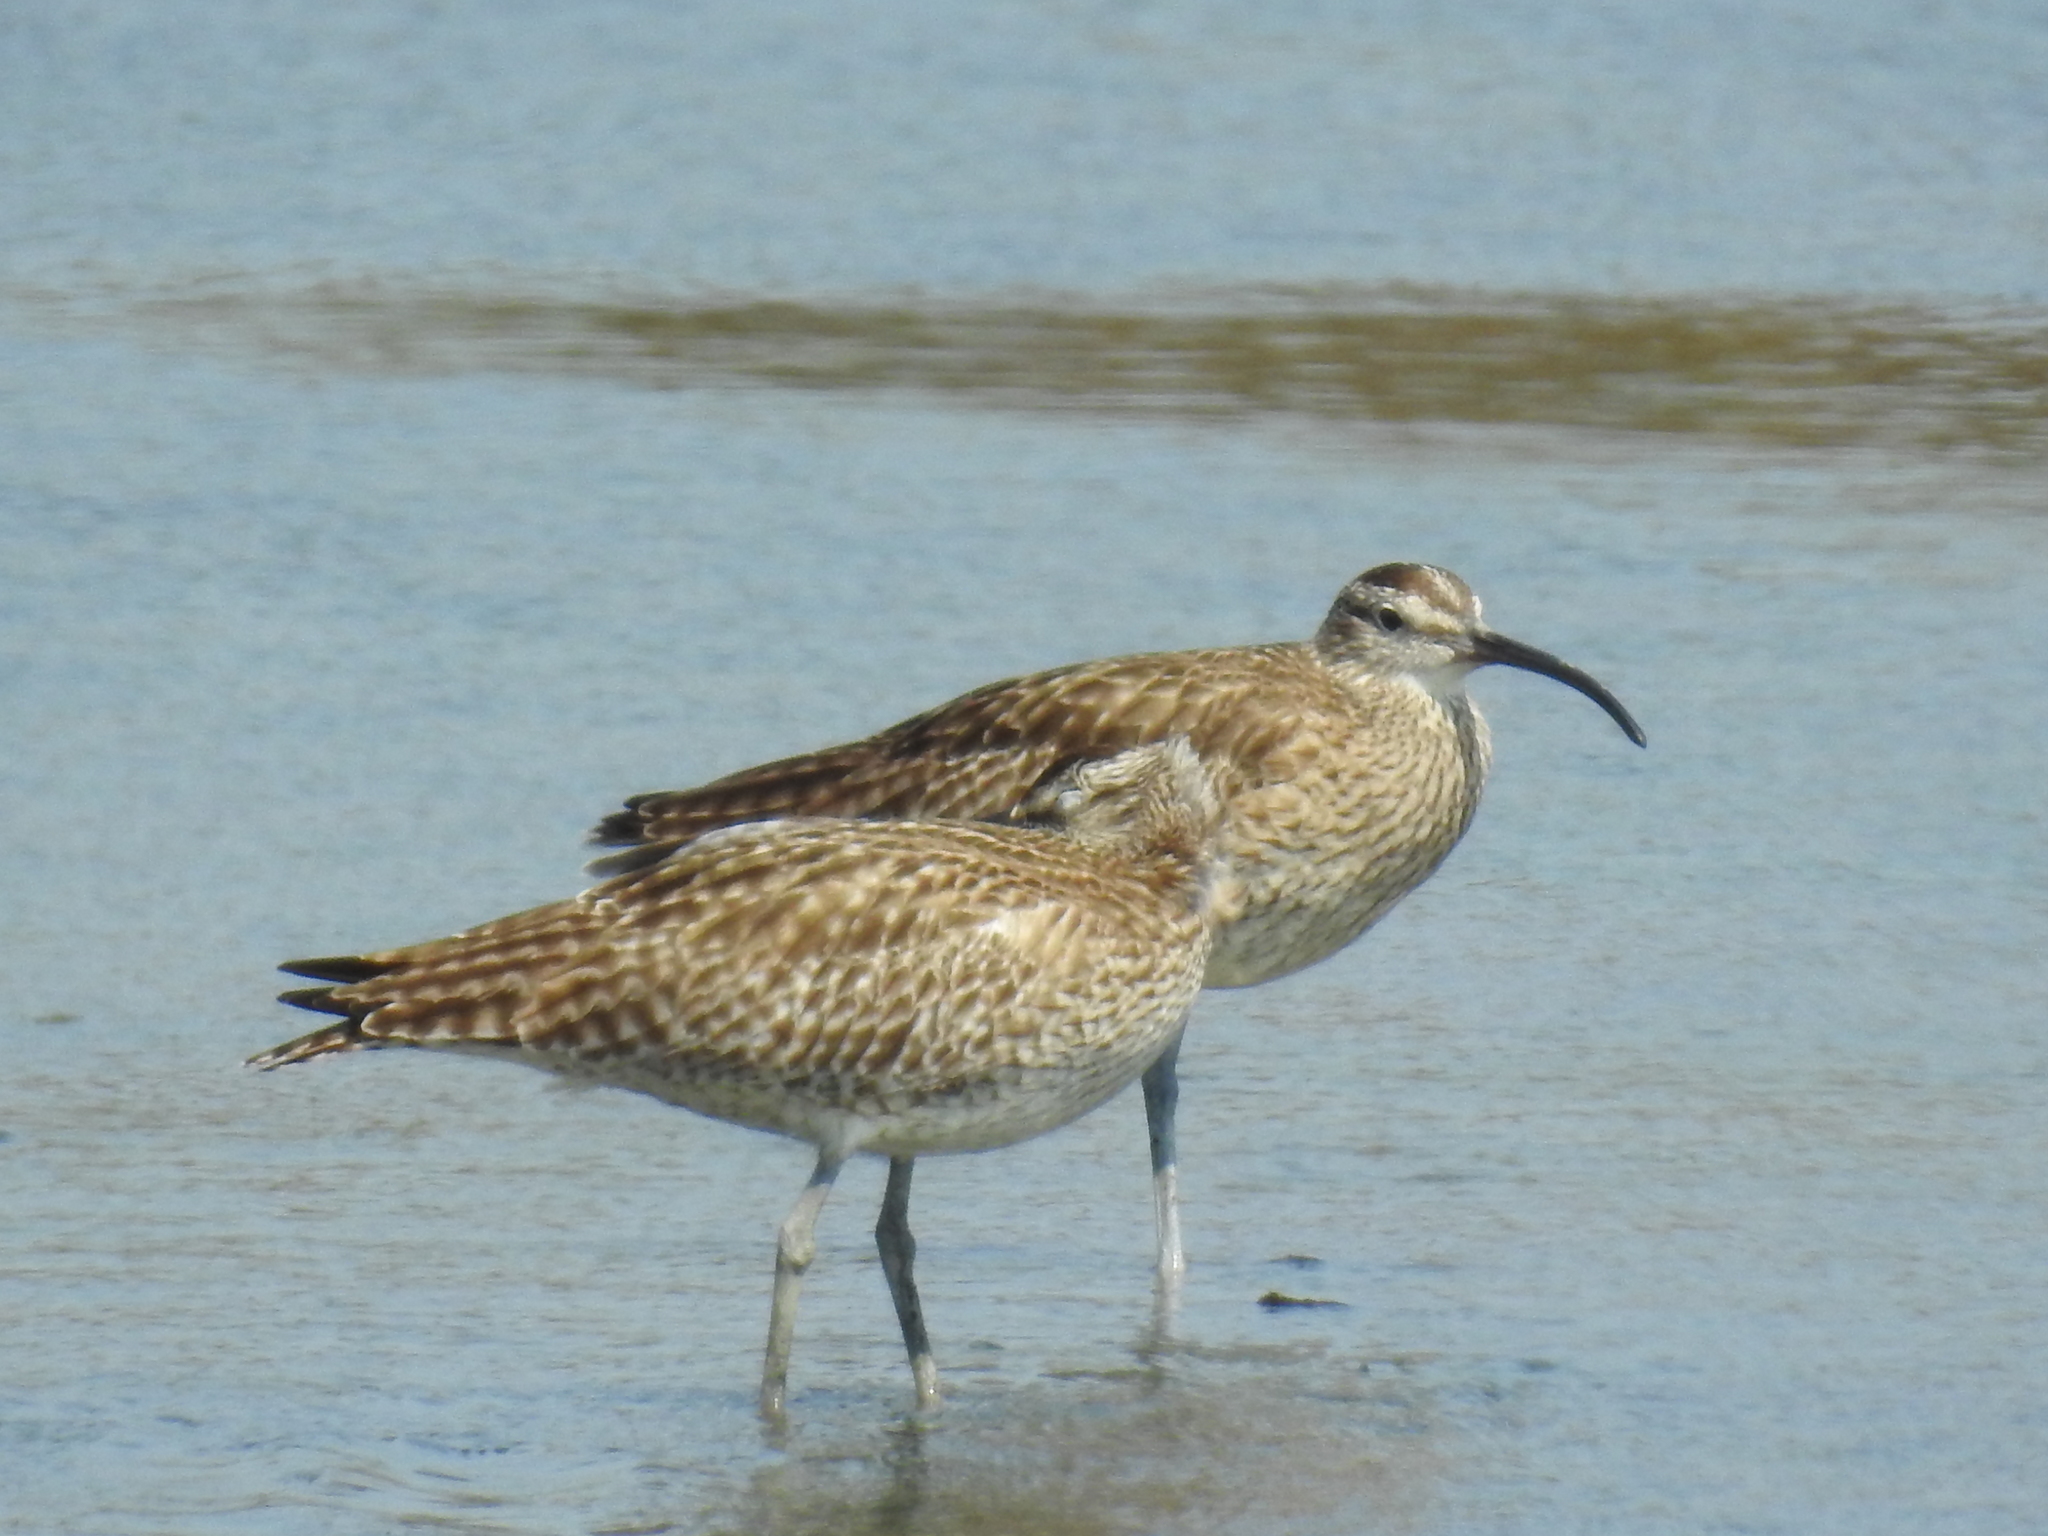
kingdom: Animalia
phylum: Chordata
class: Aves
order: Charadriiformes
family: Scolopacidae
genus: Numenius
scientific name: Numenius phaeopus
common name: Whimbrel
